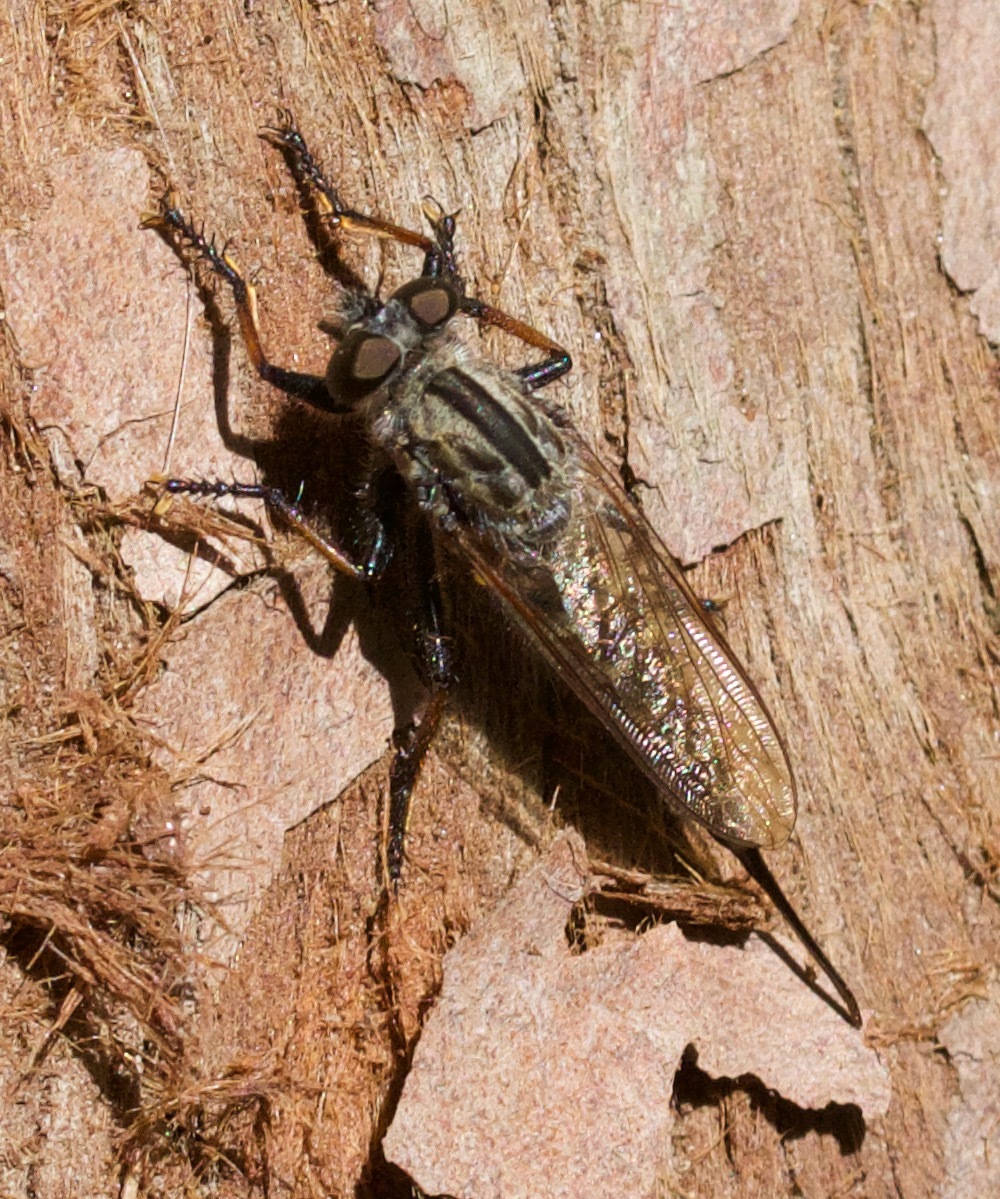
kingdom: Animalia
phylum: Arthropoda
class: Insecta
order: Diptera
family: Asilidae
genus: Efferia
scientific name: Efferia aestuans
